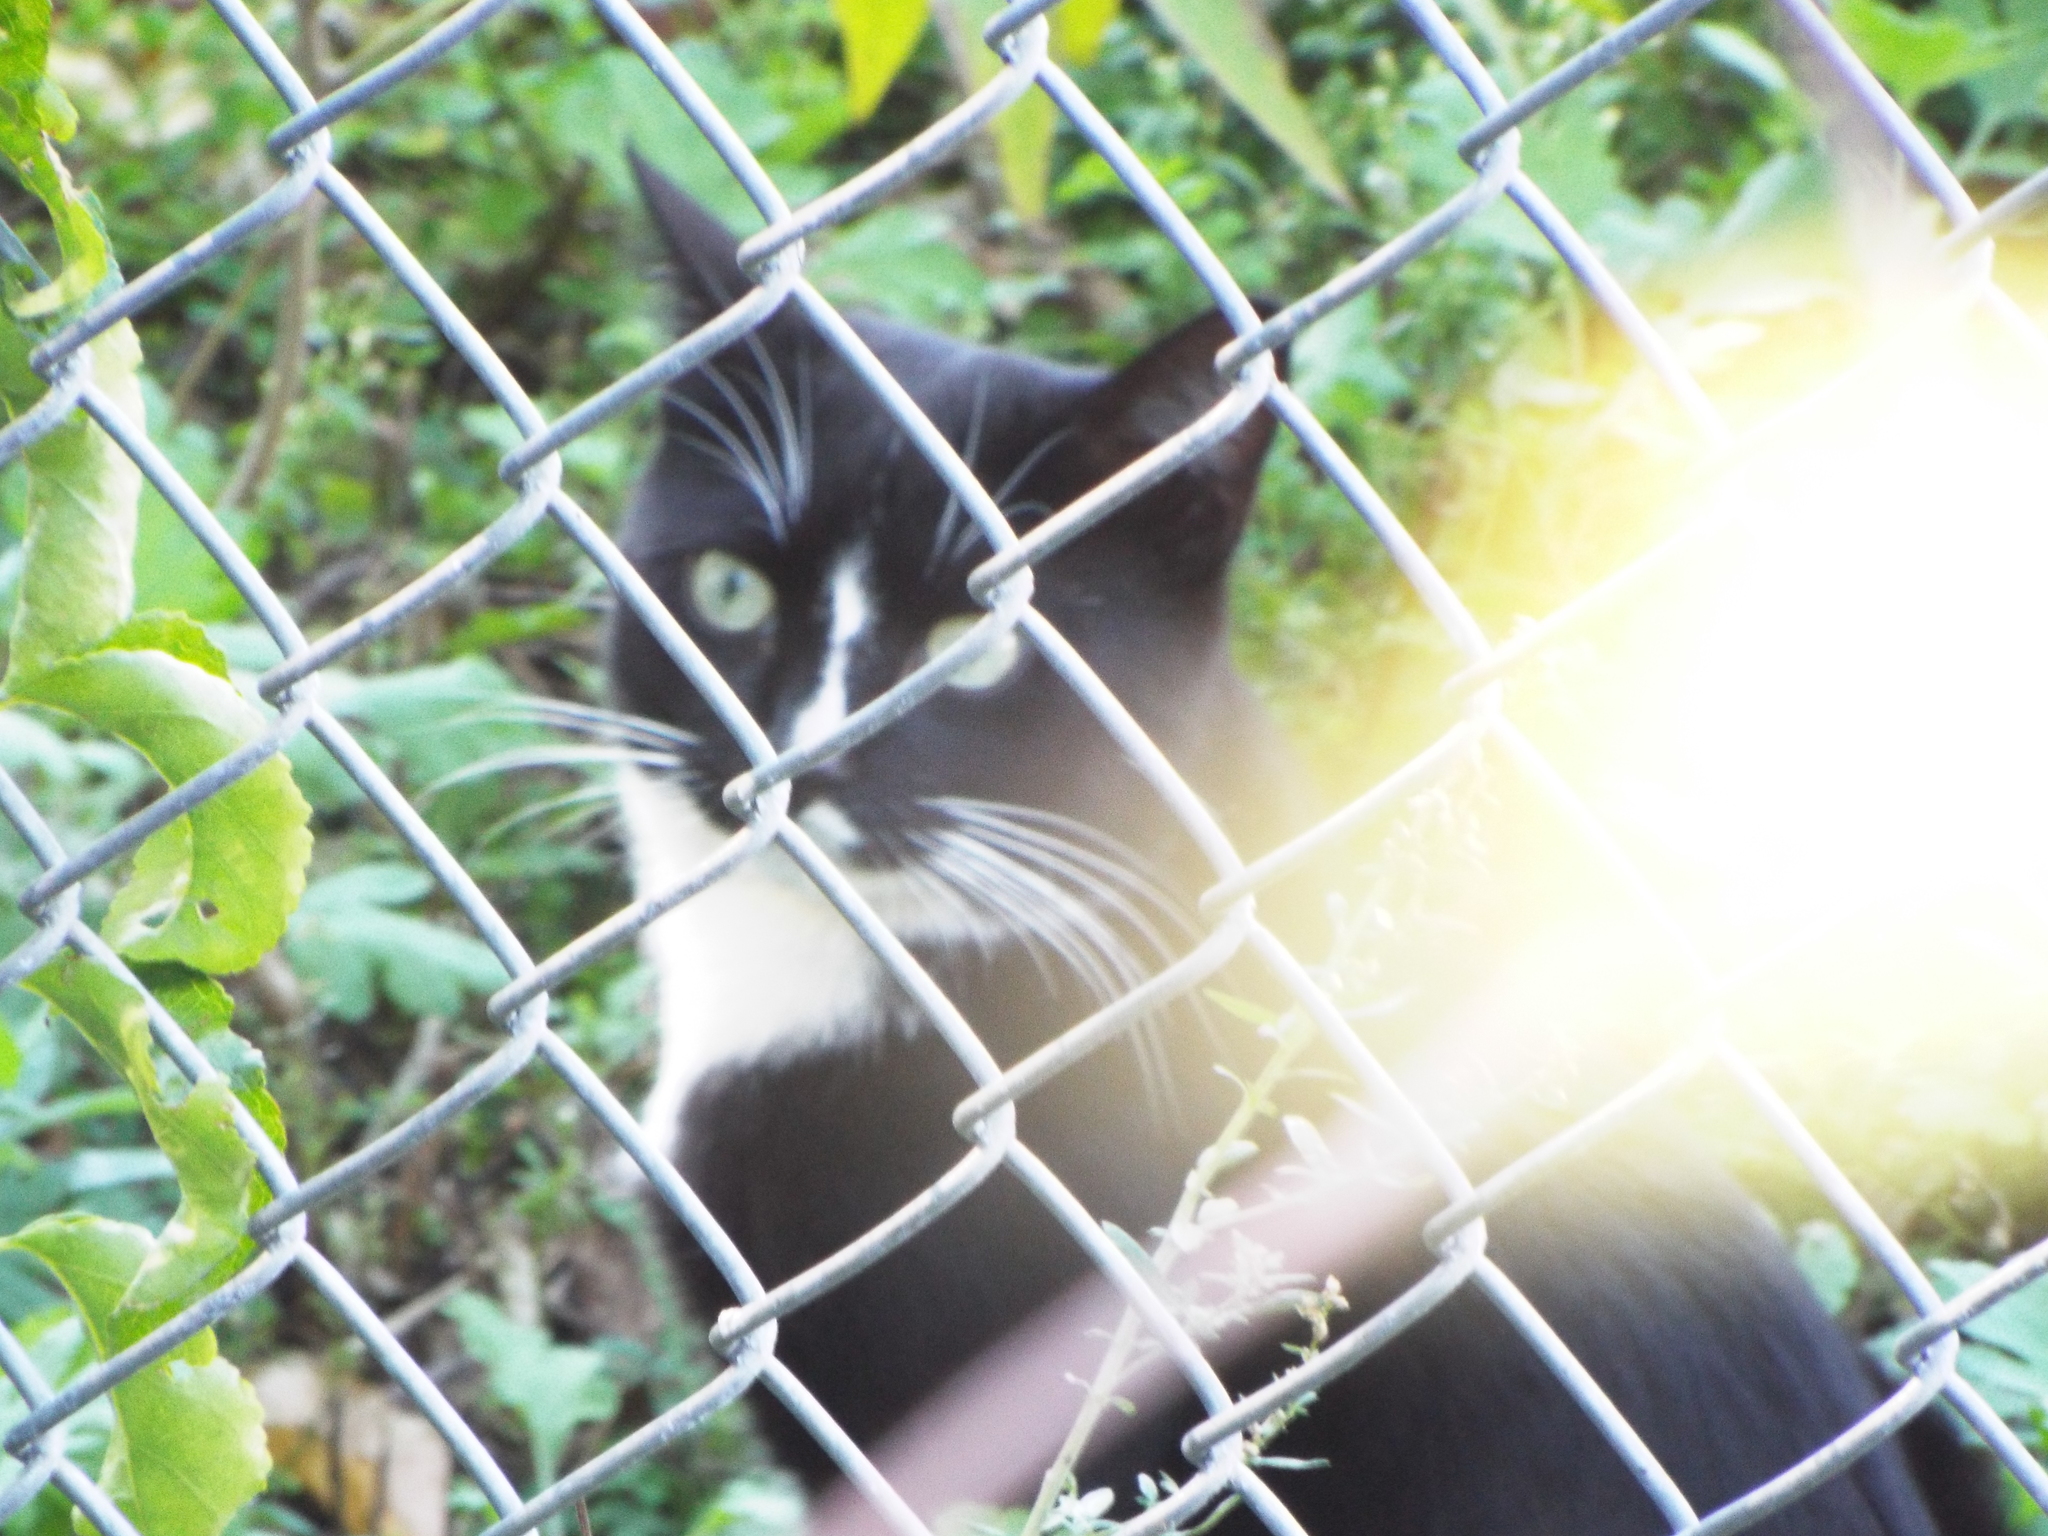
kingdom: Animalia
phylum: Chordata
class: Mammalia
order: Carnivora
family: Felidae
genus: Felis
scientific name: Felis catus
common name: Domestic cat
